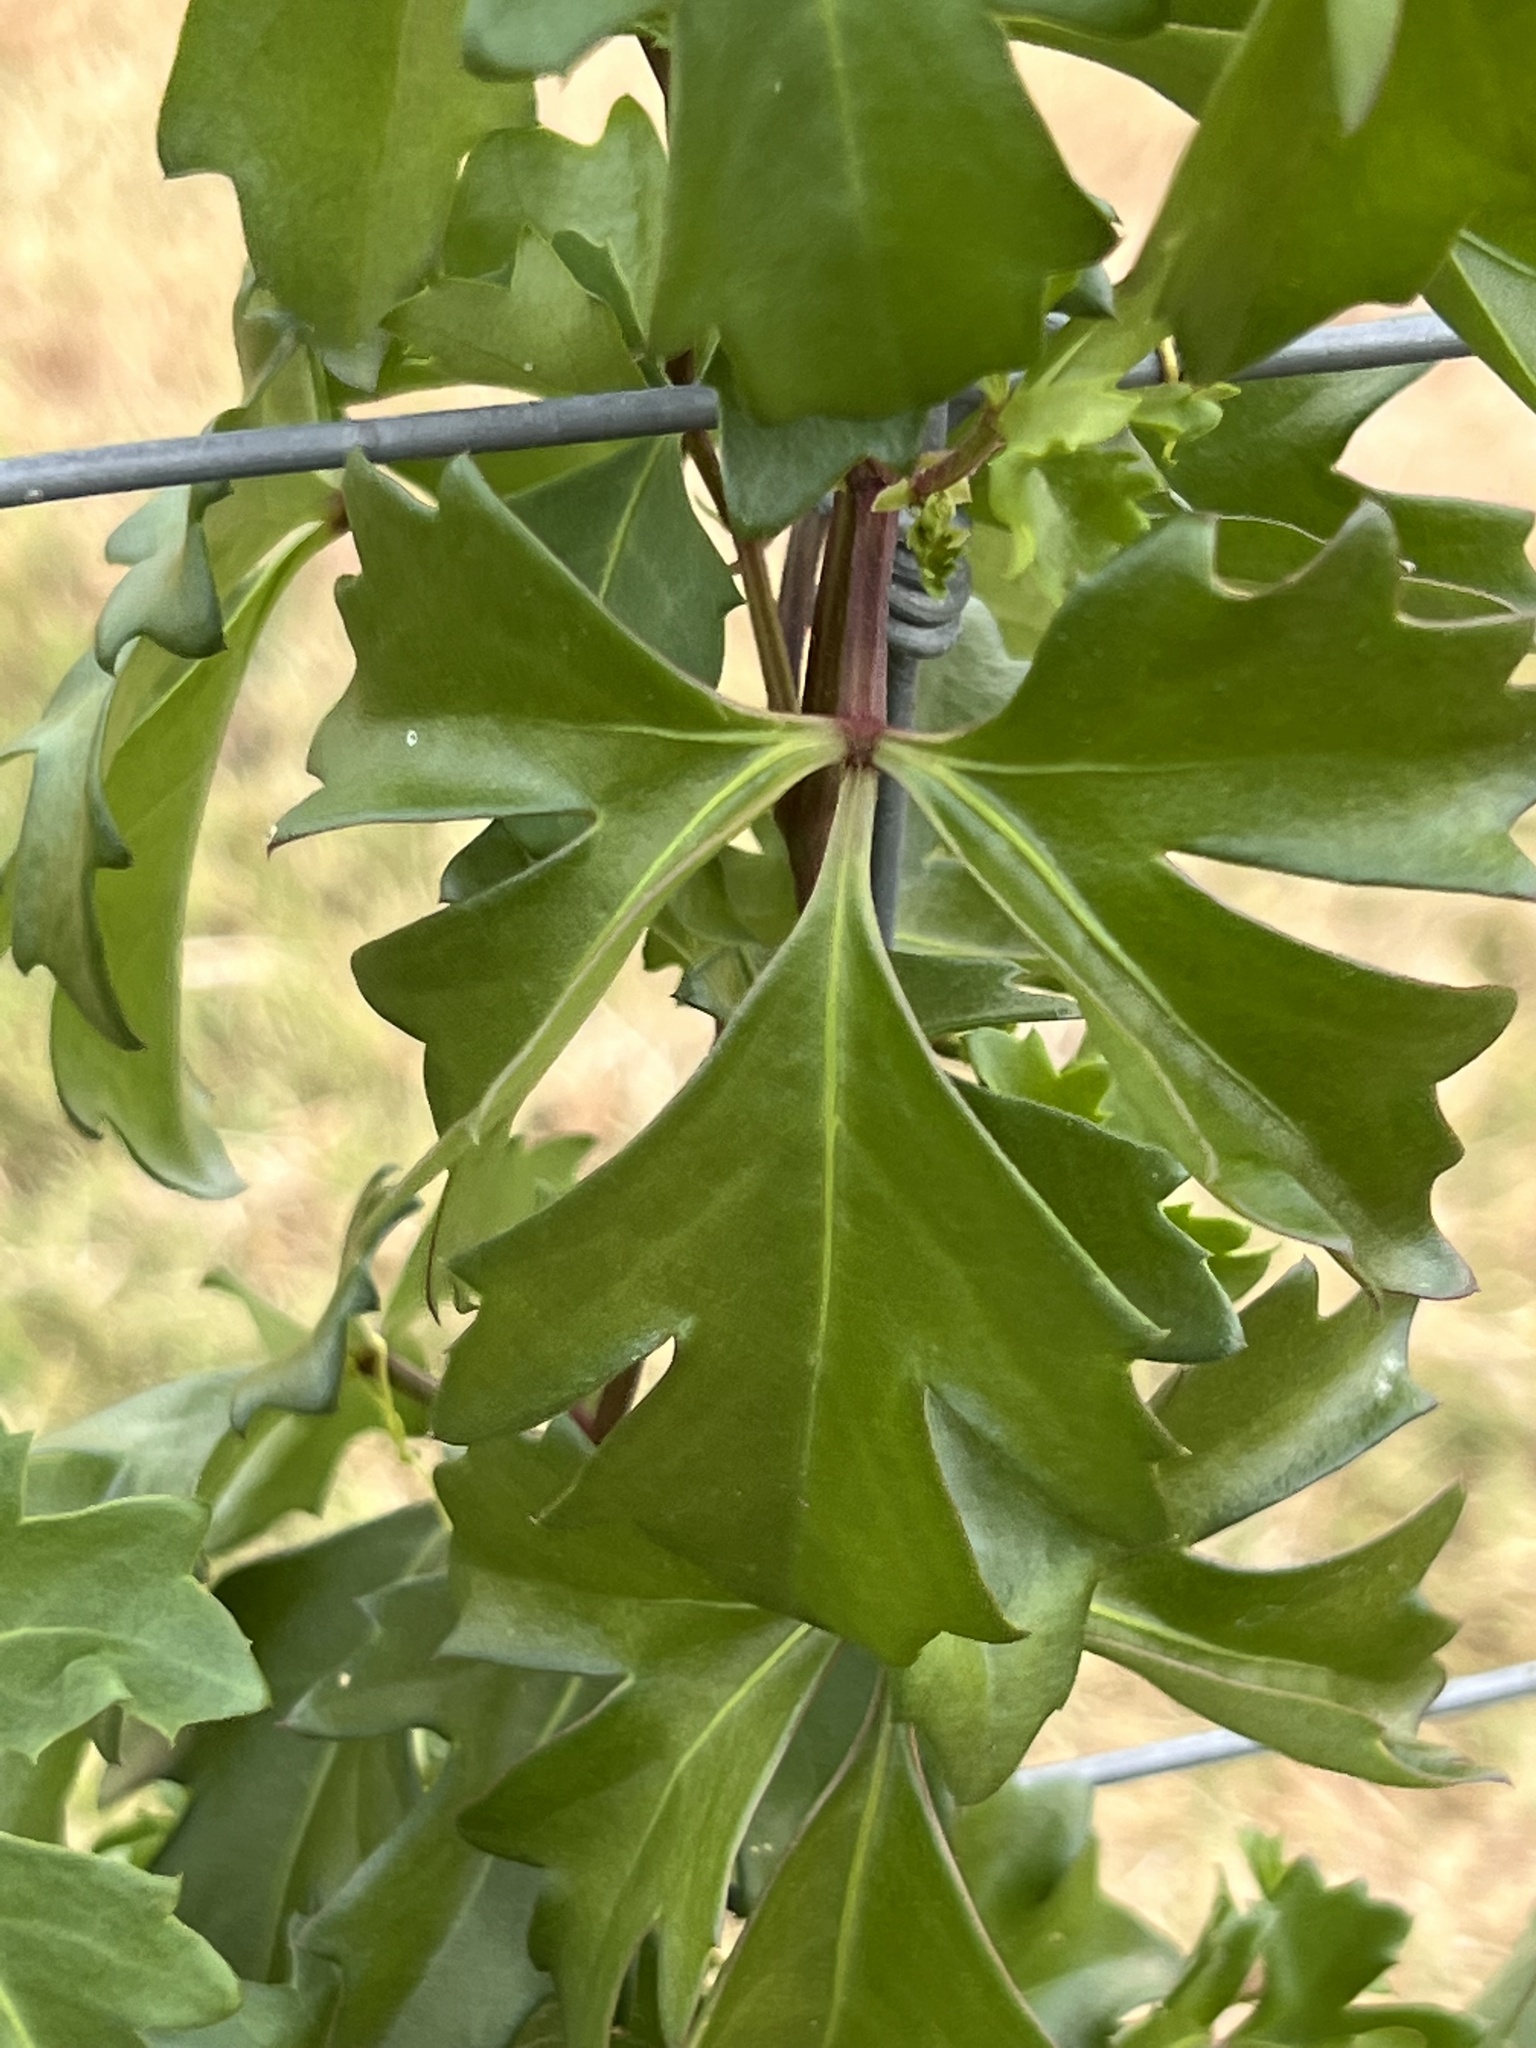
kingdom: Plantae
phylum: Tracheophyta
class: Magnoliopsida
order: Vitales
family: Vitaceae
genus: Cissus
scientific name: Cissus trifoliata
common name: Vine-sorrel
